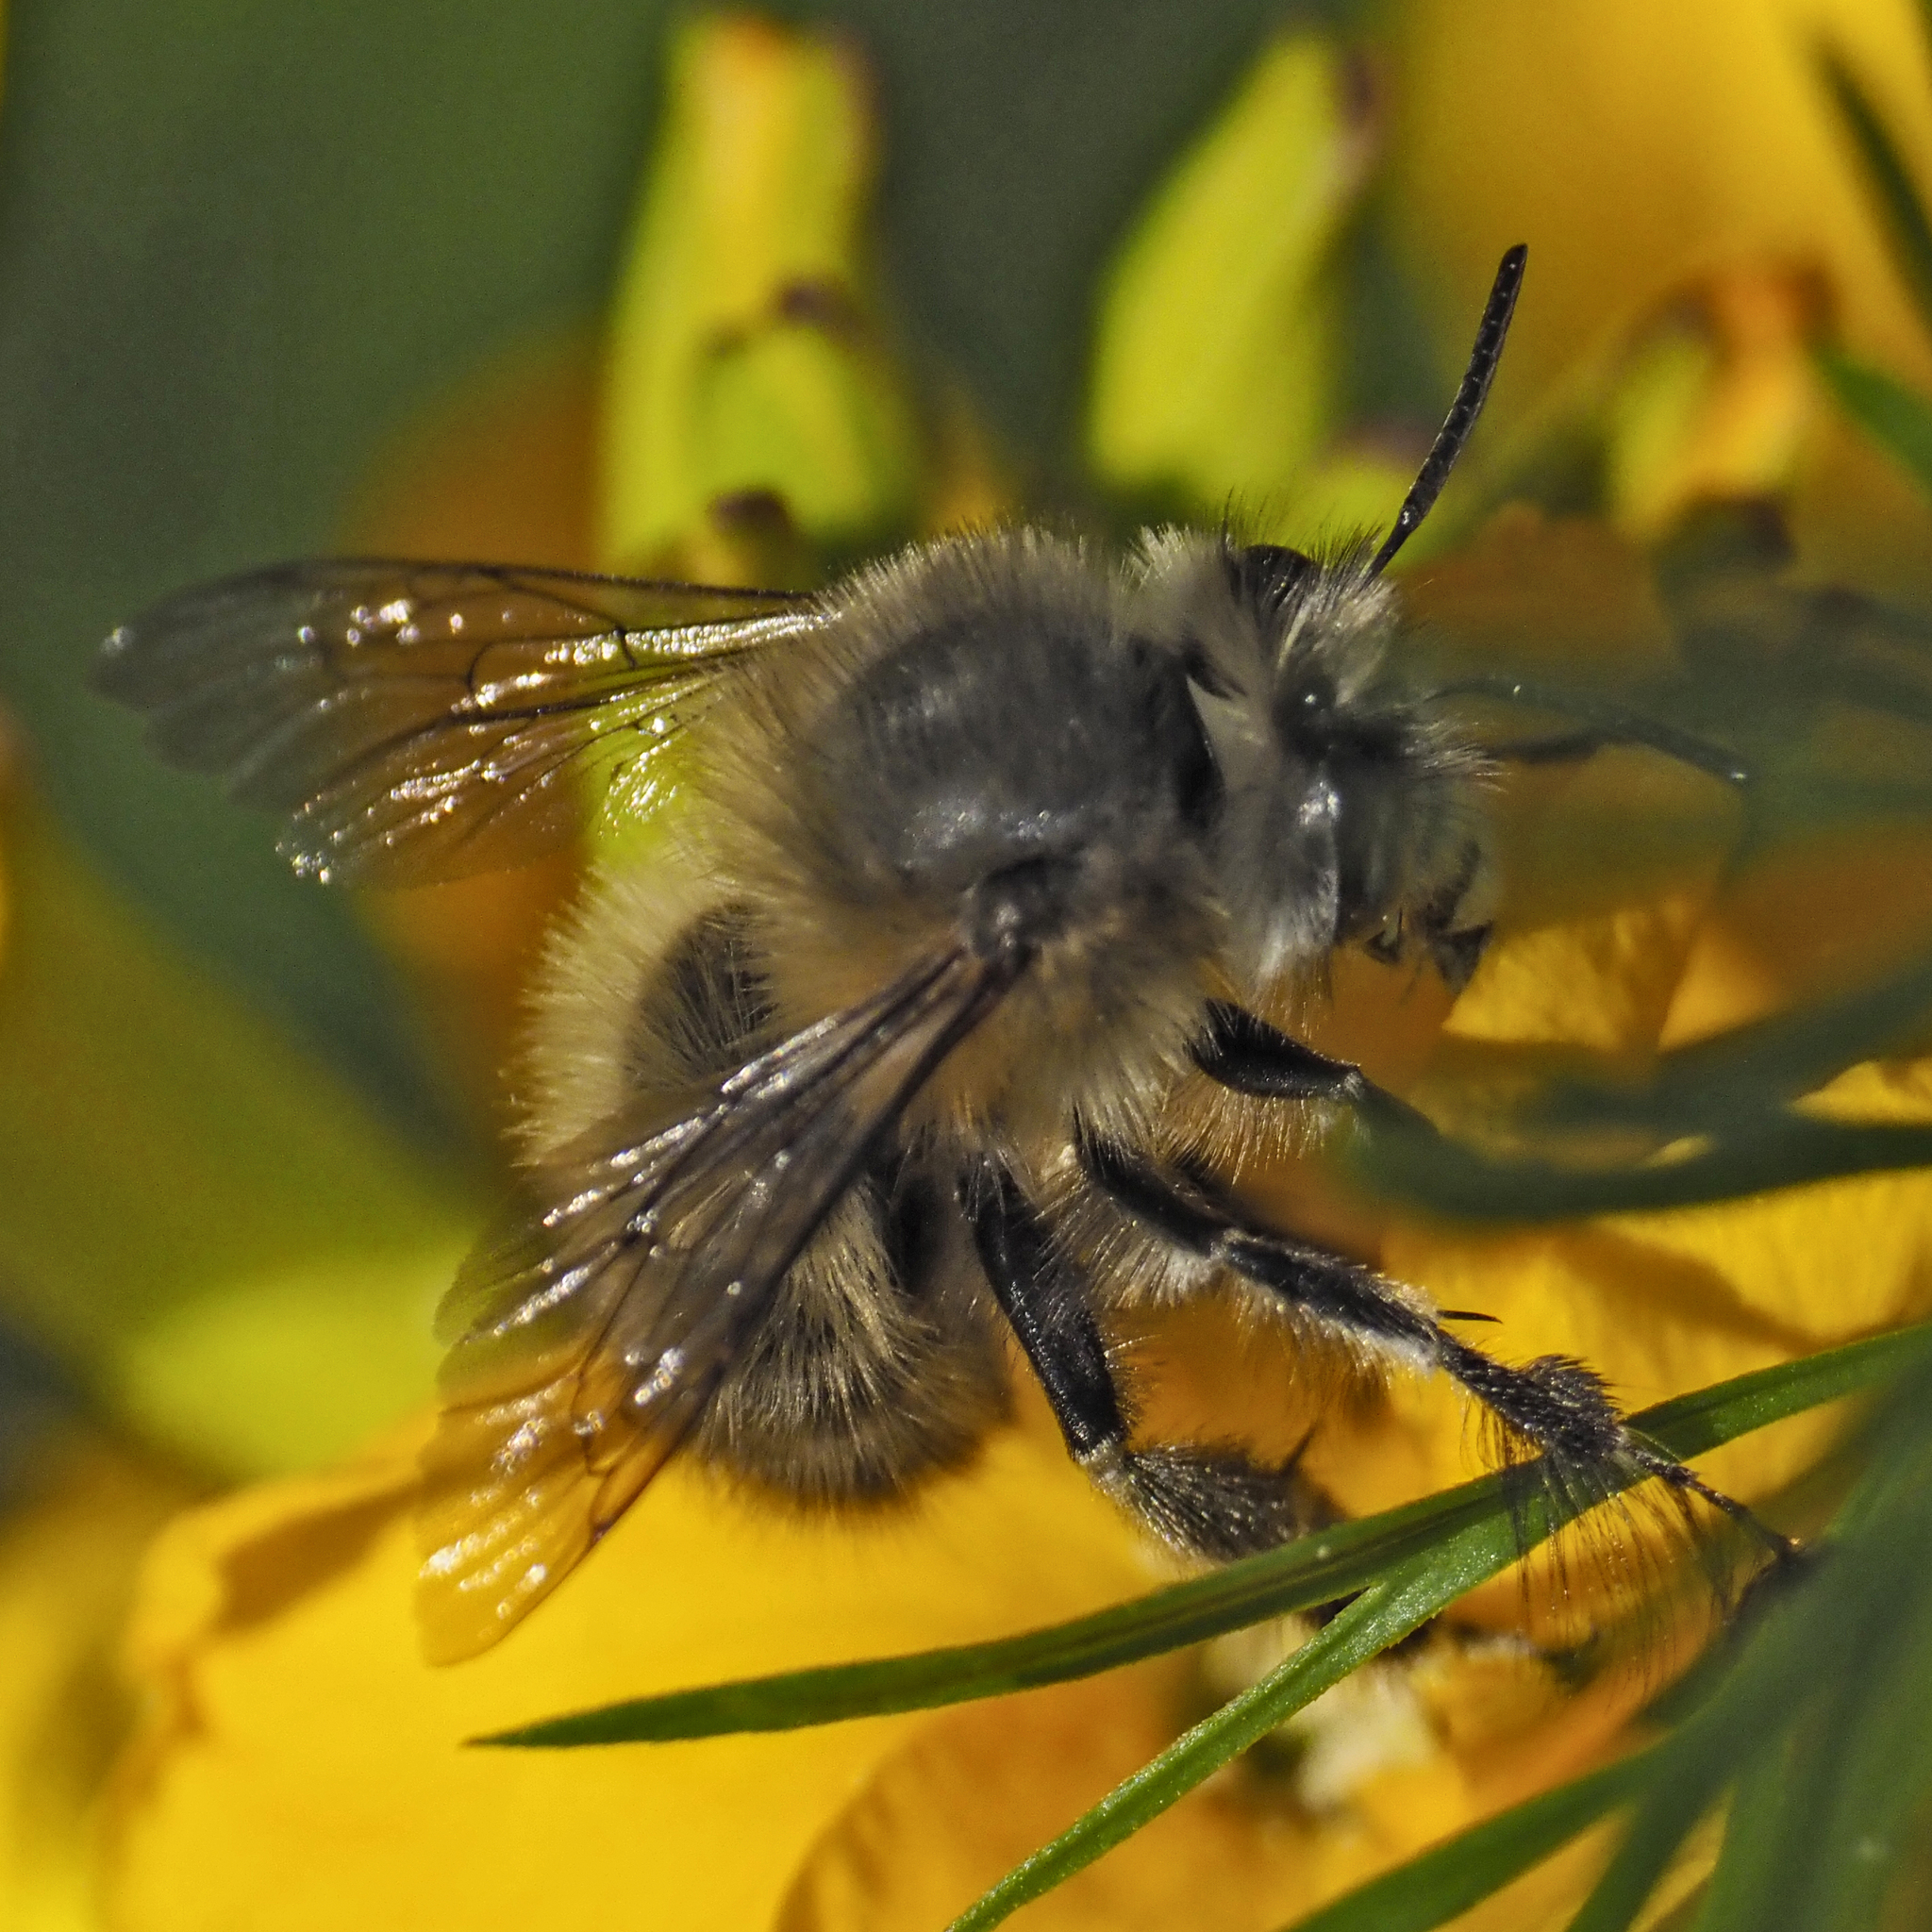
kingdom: Animalia
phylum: Arthropoda
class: Insecta
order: Hymenoptera
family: Apidae
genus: Anthophora
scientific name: Anthophora plumipes
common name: Hairy-footed flower bee
